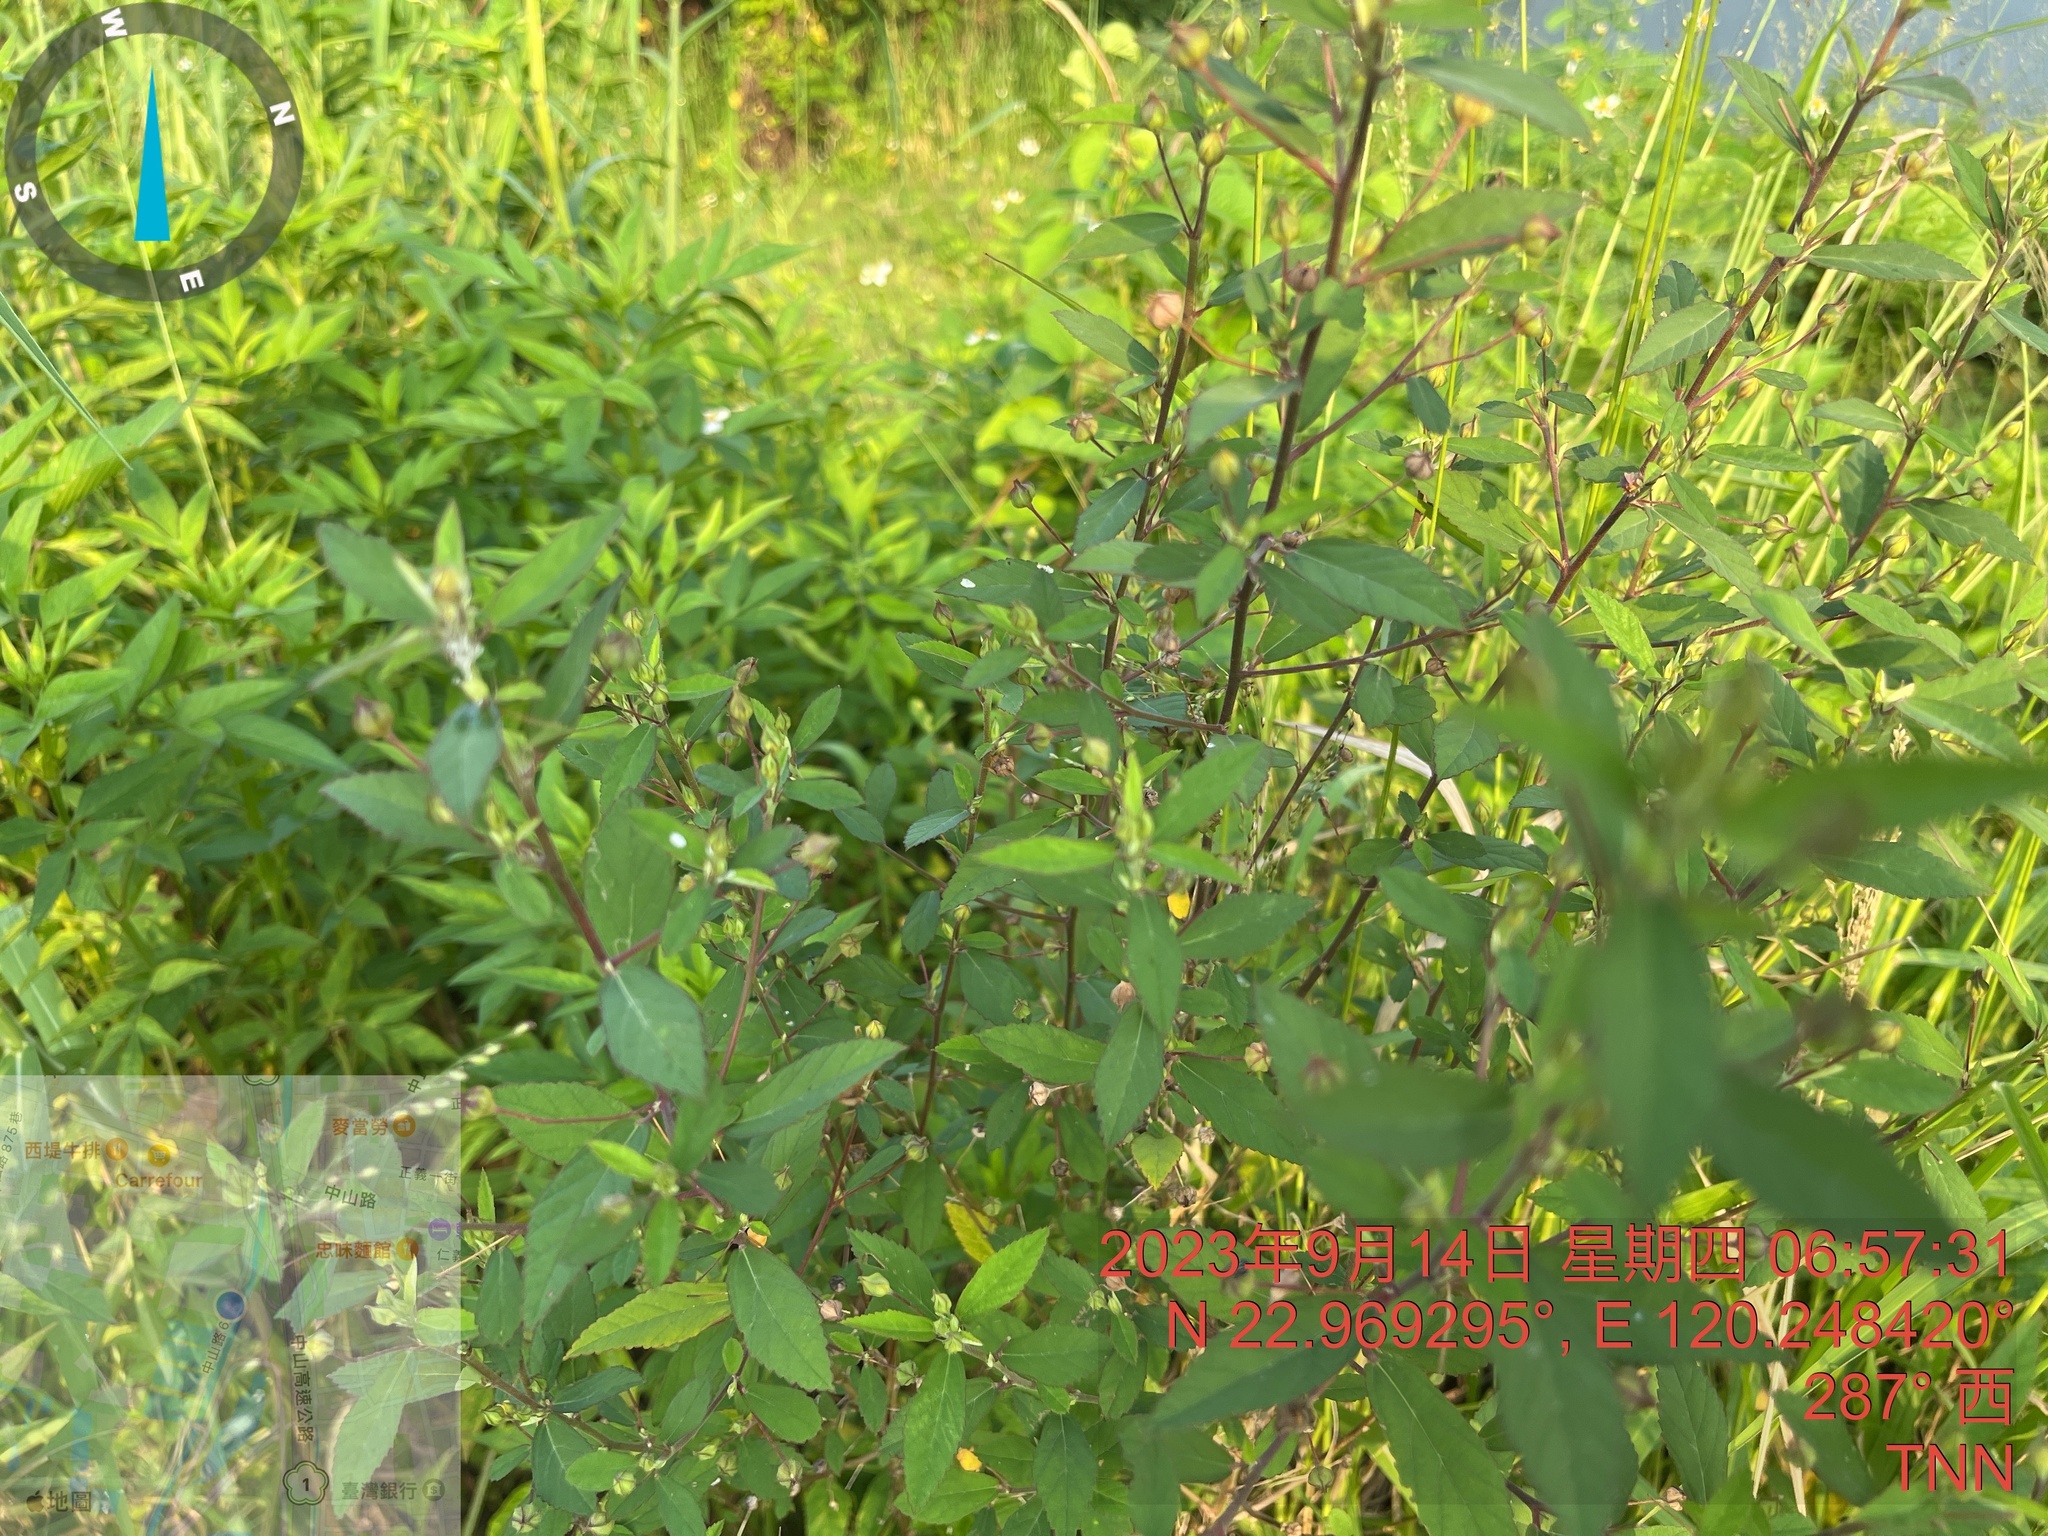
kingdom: Plantae
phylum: Tracheophyta
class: Magnoliopsida
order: Malvales
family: Malvaceae
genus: Sida
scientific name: Sida rhombifolia
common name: Queensland-hemp
